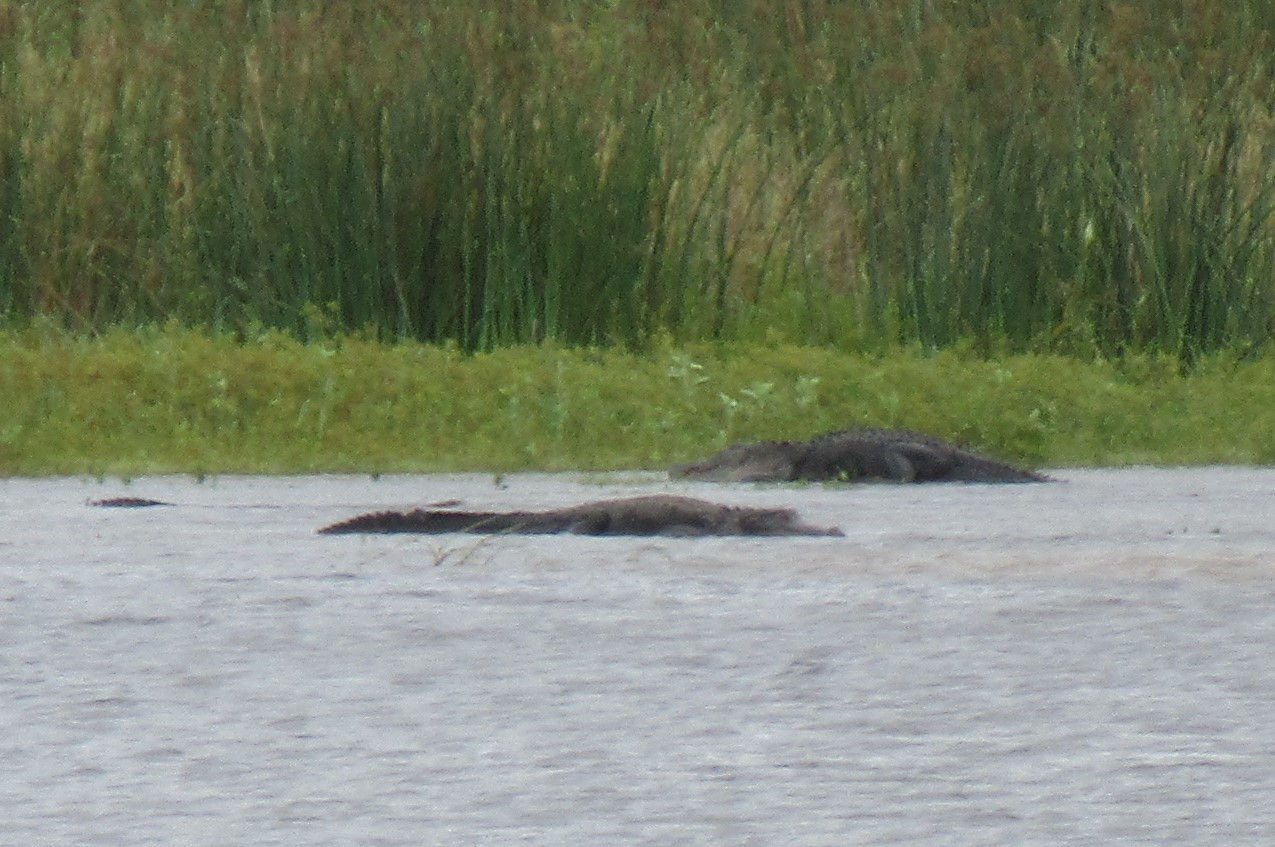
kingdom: Animalia
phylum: Chordata
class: Crocodylia
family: Alligatoridae
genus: Alligator
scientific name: Alligator mississippiensis
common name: American alligator
